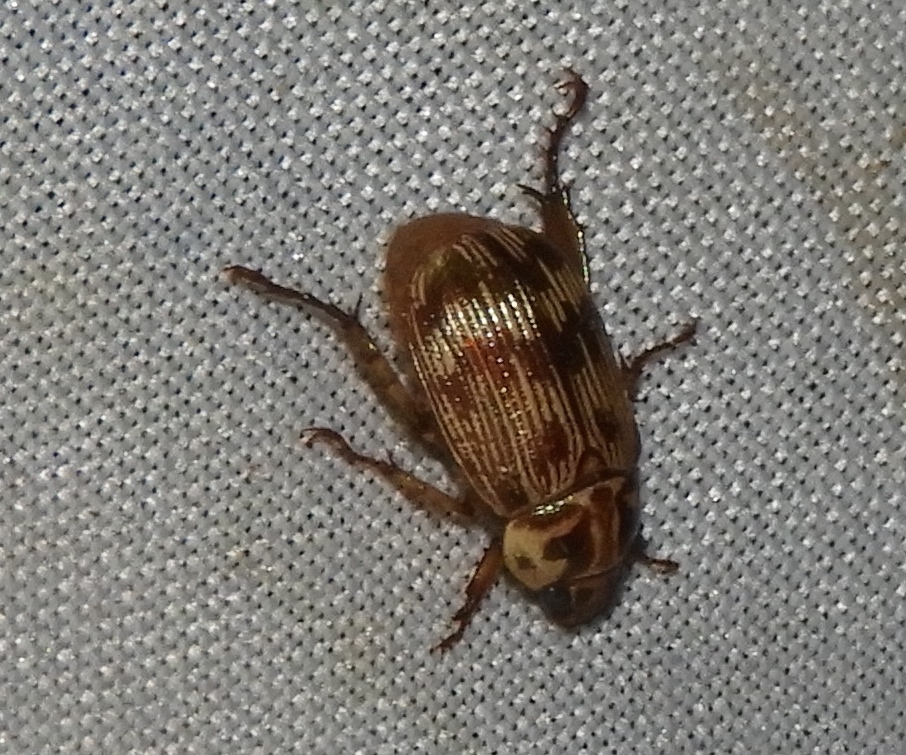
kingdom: Animalia
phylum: Arthropoda
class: Insecta
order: Coleoptera
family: Scarabaeidae
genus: Paranomala
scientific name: Paranomala histrionella
